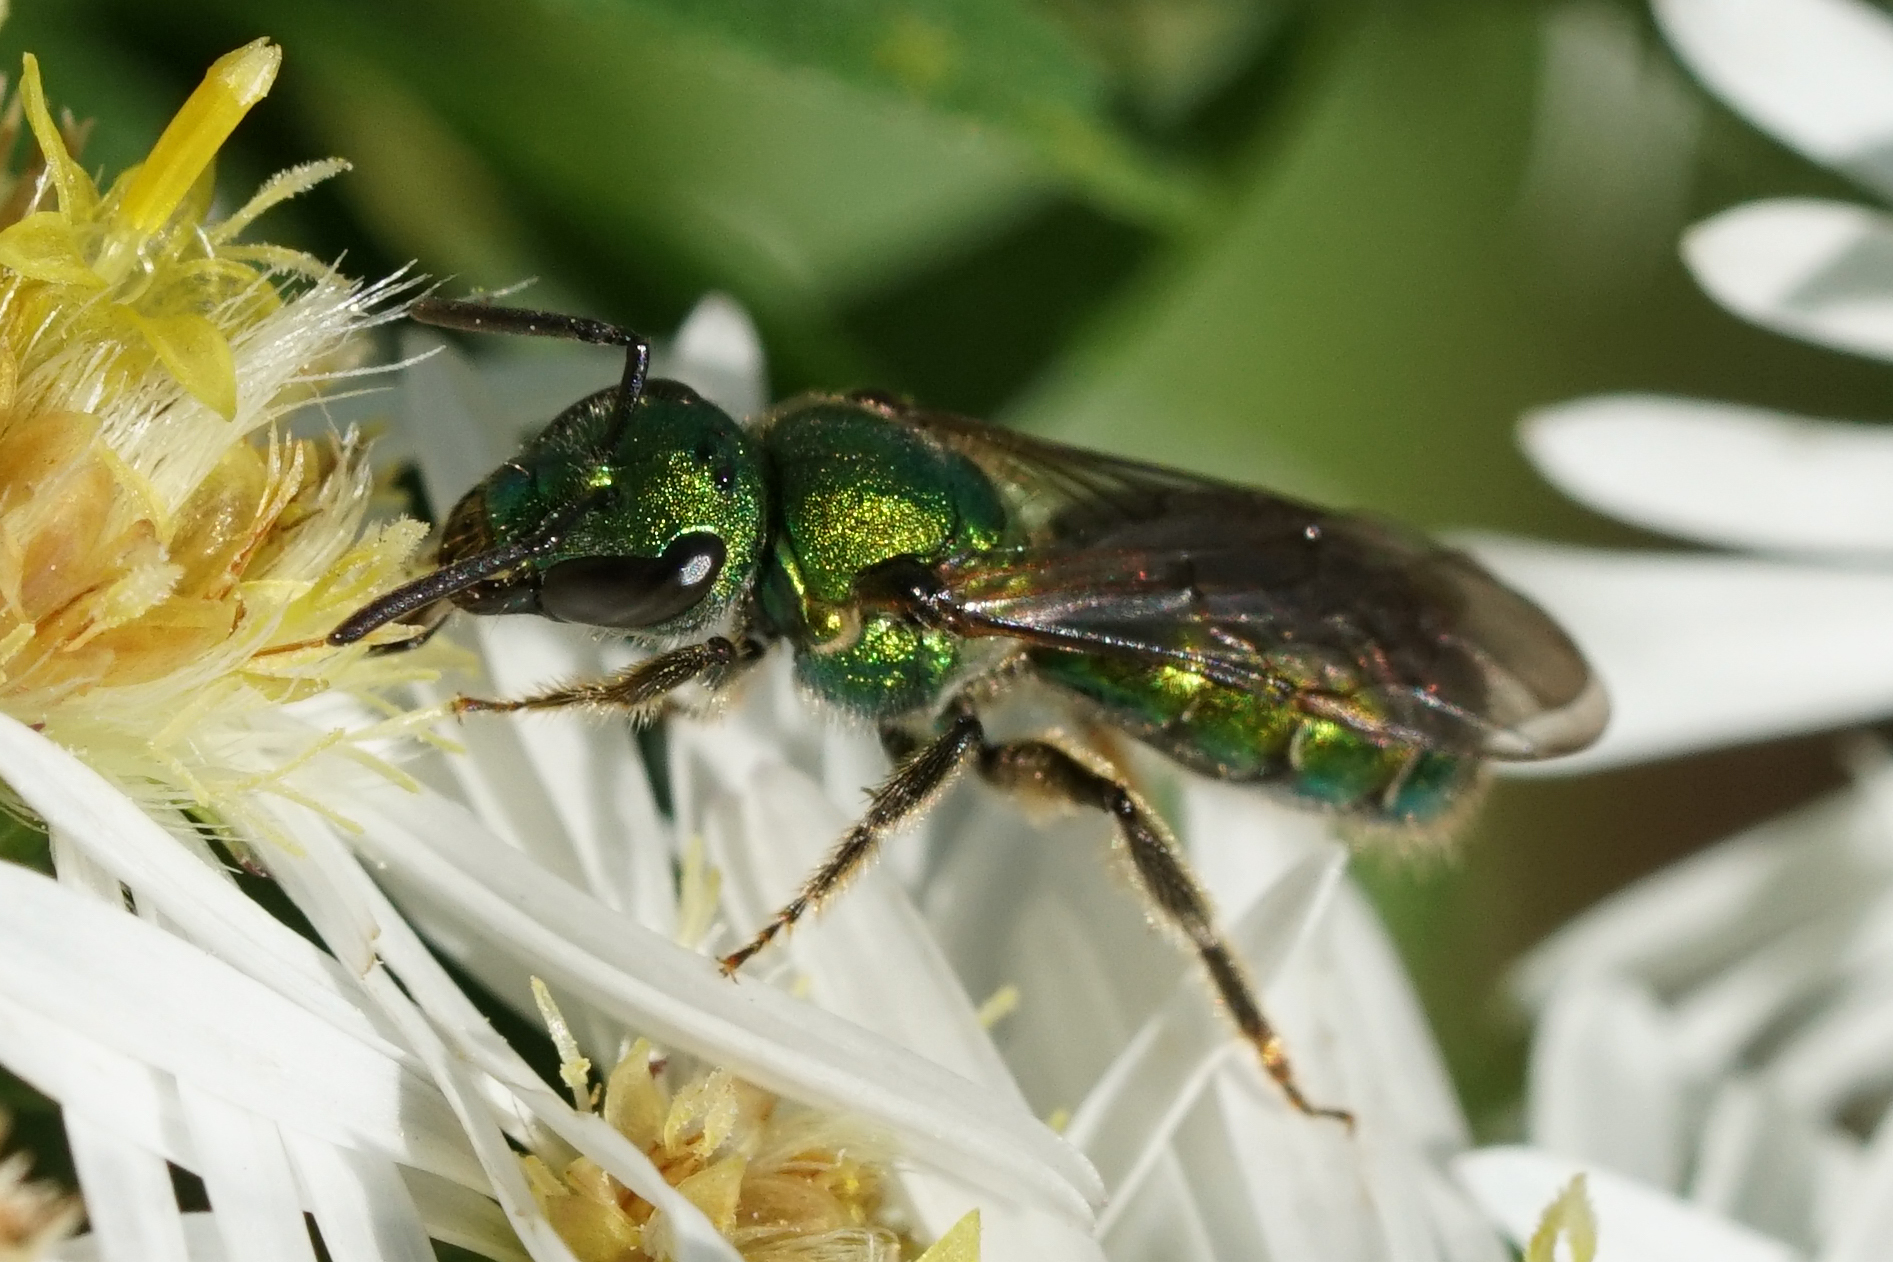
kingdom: Animalia
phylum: Arthropoda
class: Insecta
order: Hymenoptera
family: Halictidae
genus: Augochlora
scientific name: Augochlora pura
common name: Pure green sweat bee
